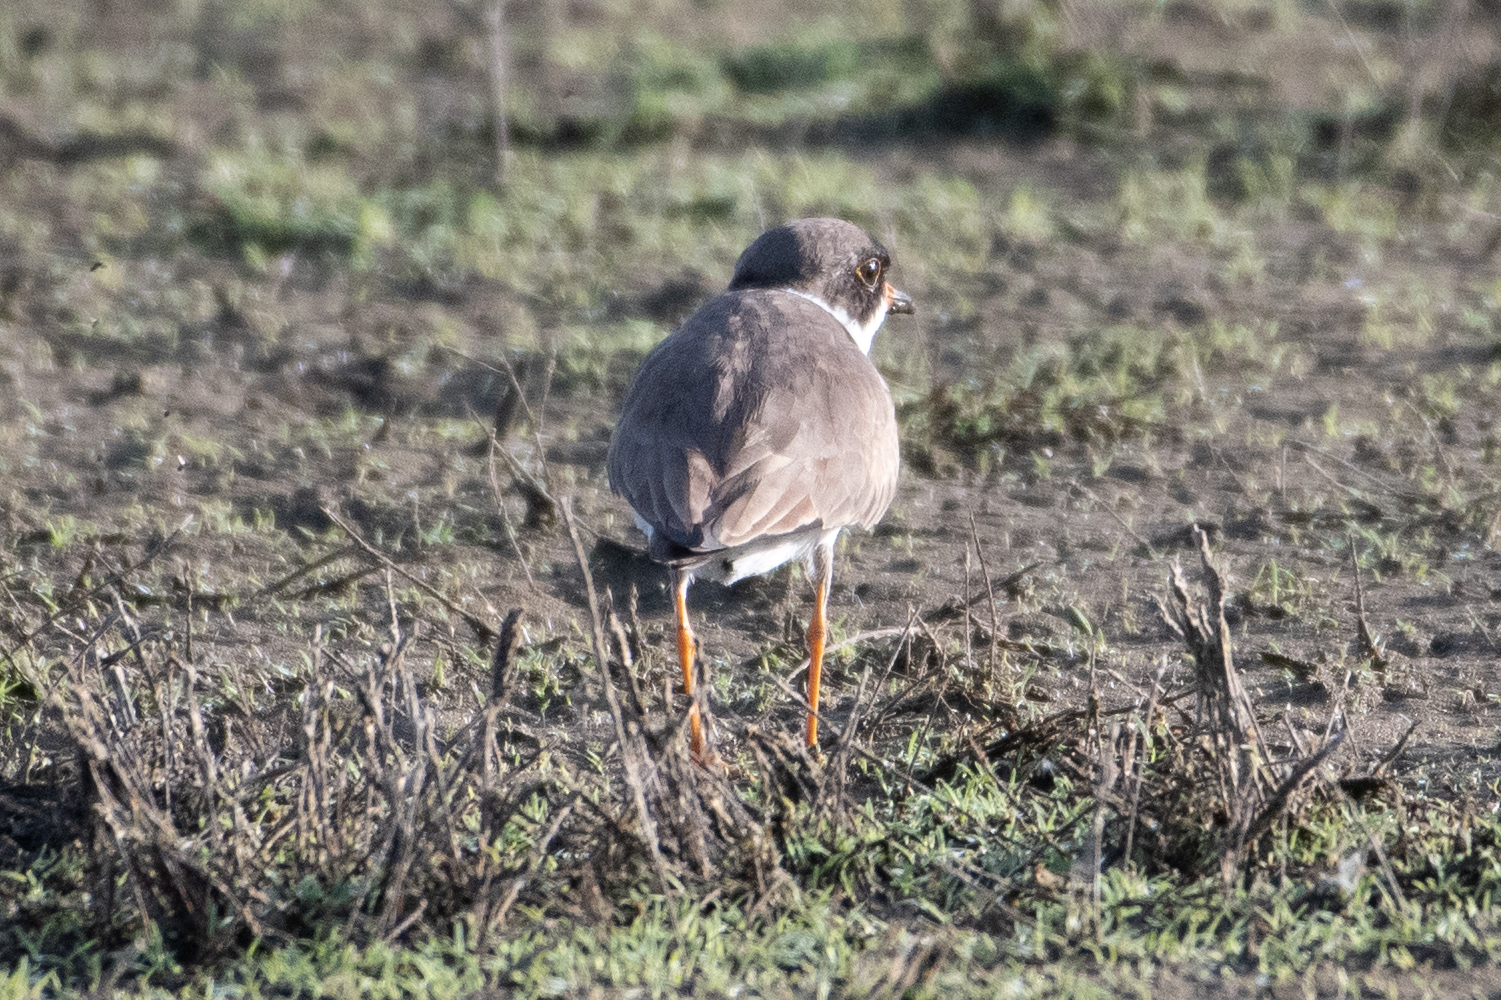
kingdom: Animalia
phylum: Chordata
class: Aves
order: Charadriiformes
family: Charadriidae
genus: Charadrius
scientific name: Charadrius semipalmatus
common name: Semipalmated plover
